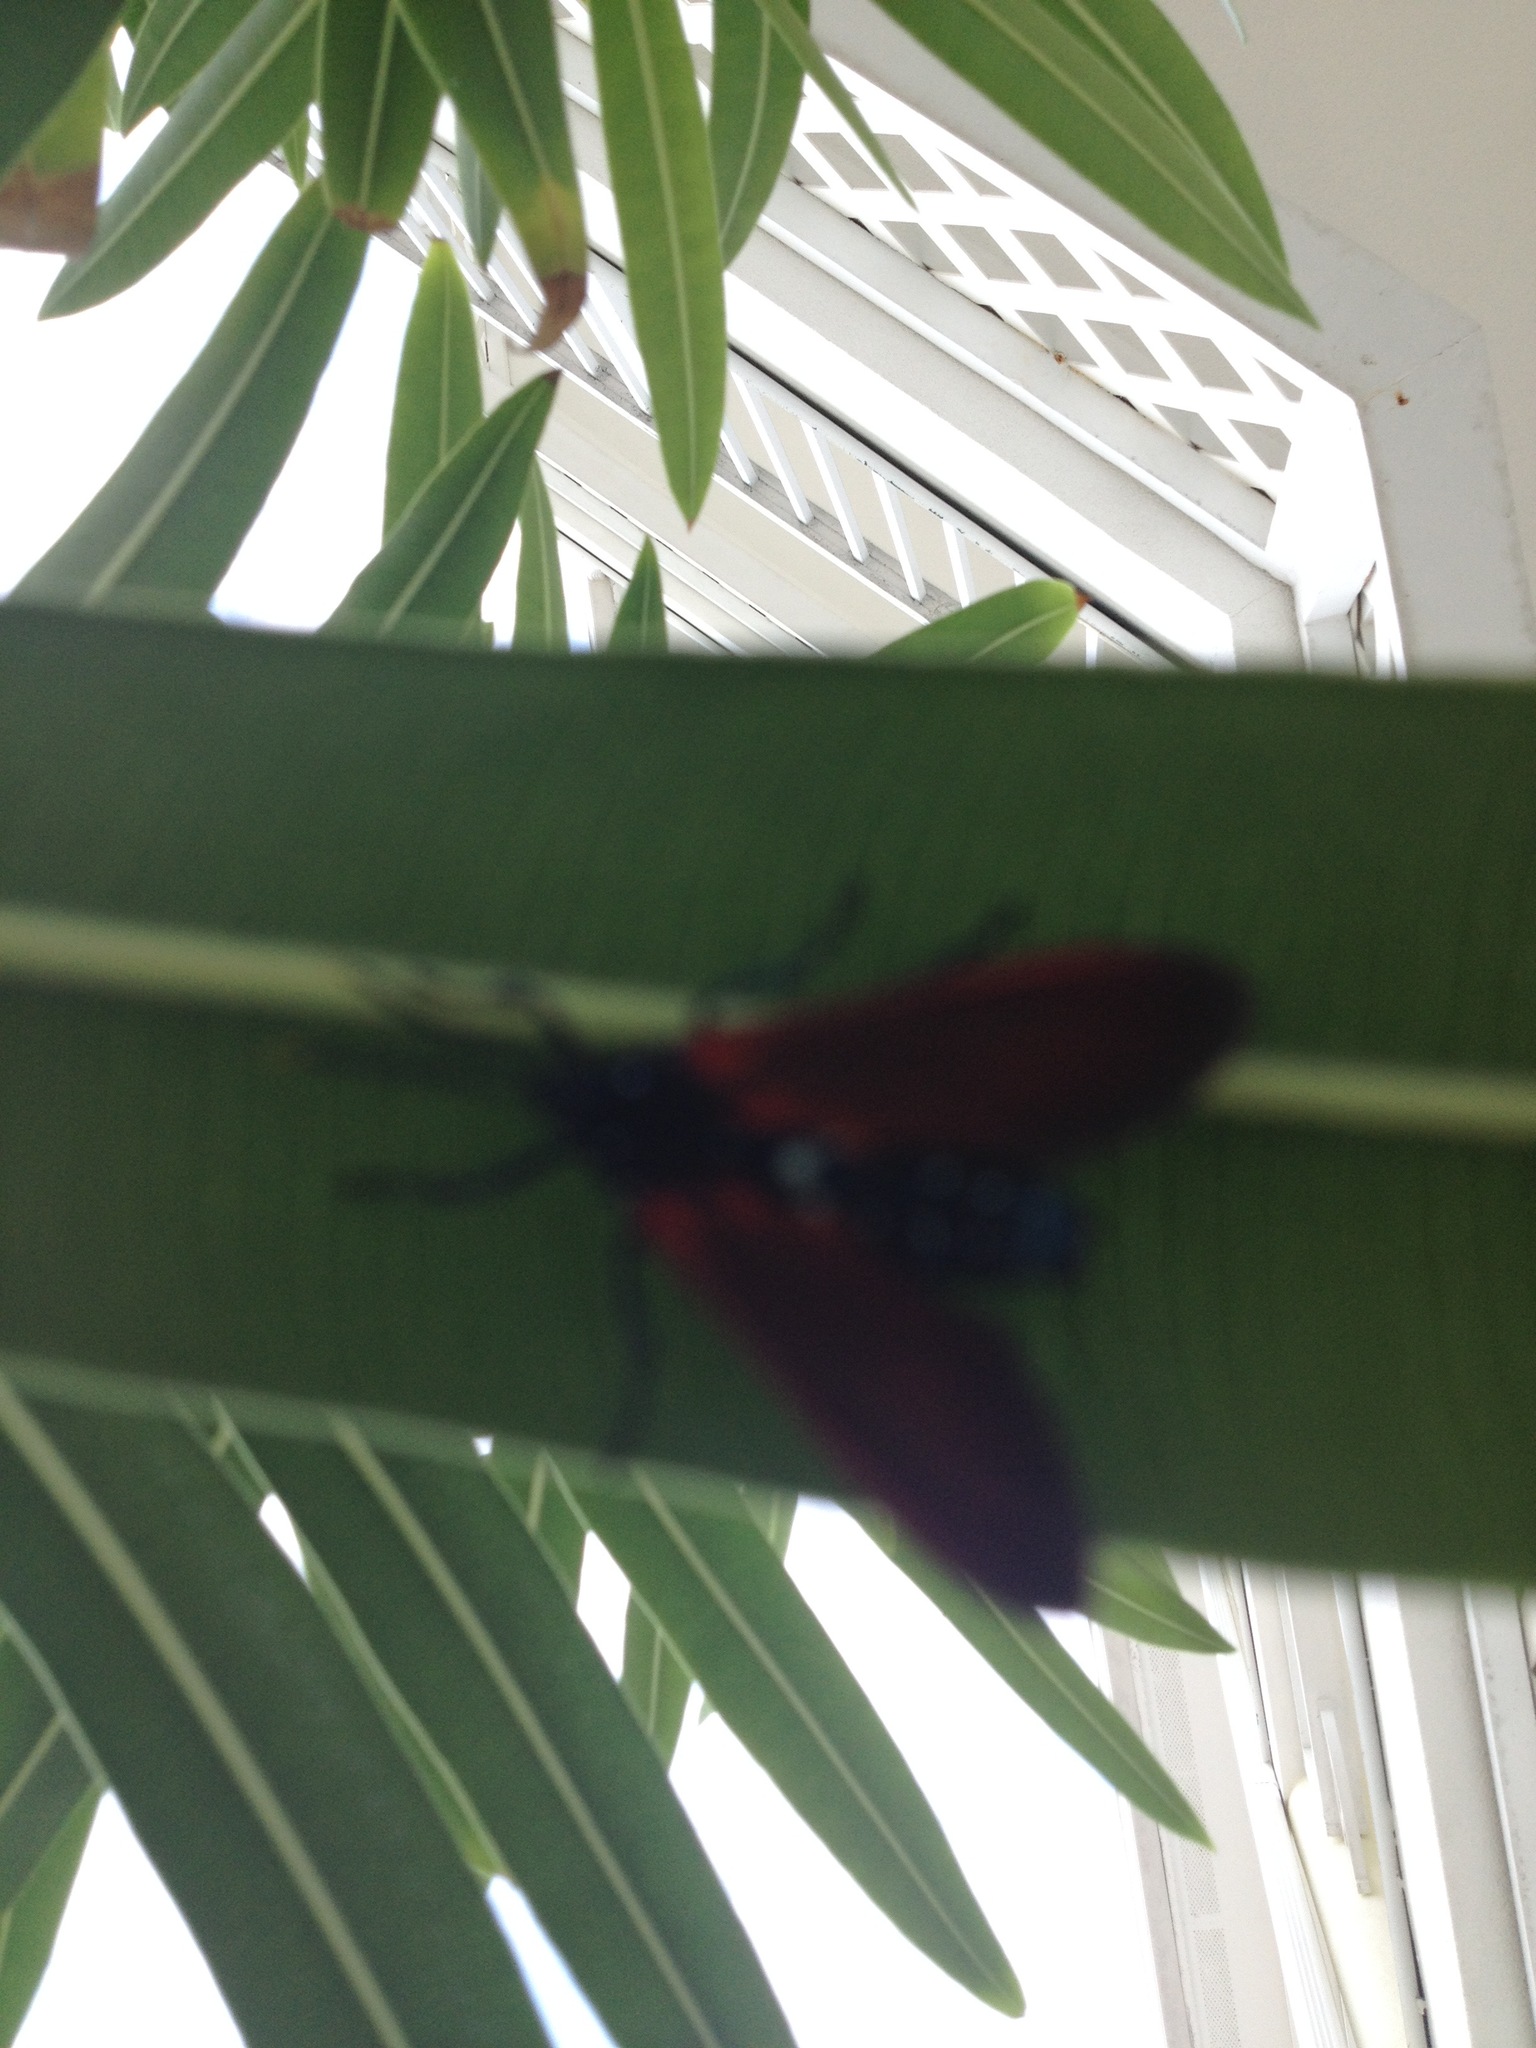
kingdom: Animalia
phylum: Arthropoda
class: Insecta
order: Lepidoptera
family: Erebidae
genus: Empyreuma
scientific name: Empyreuma pugione
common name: Spotted oleander caterpillar moth
